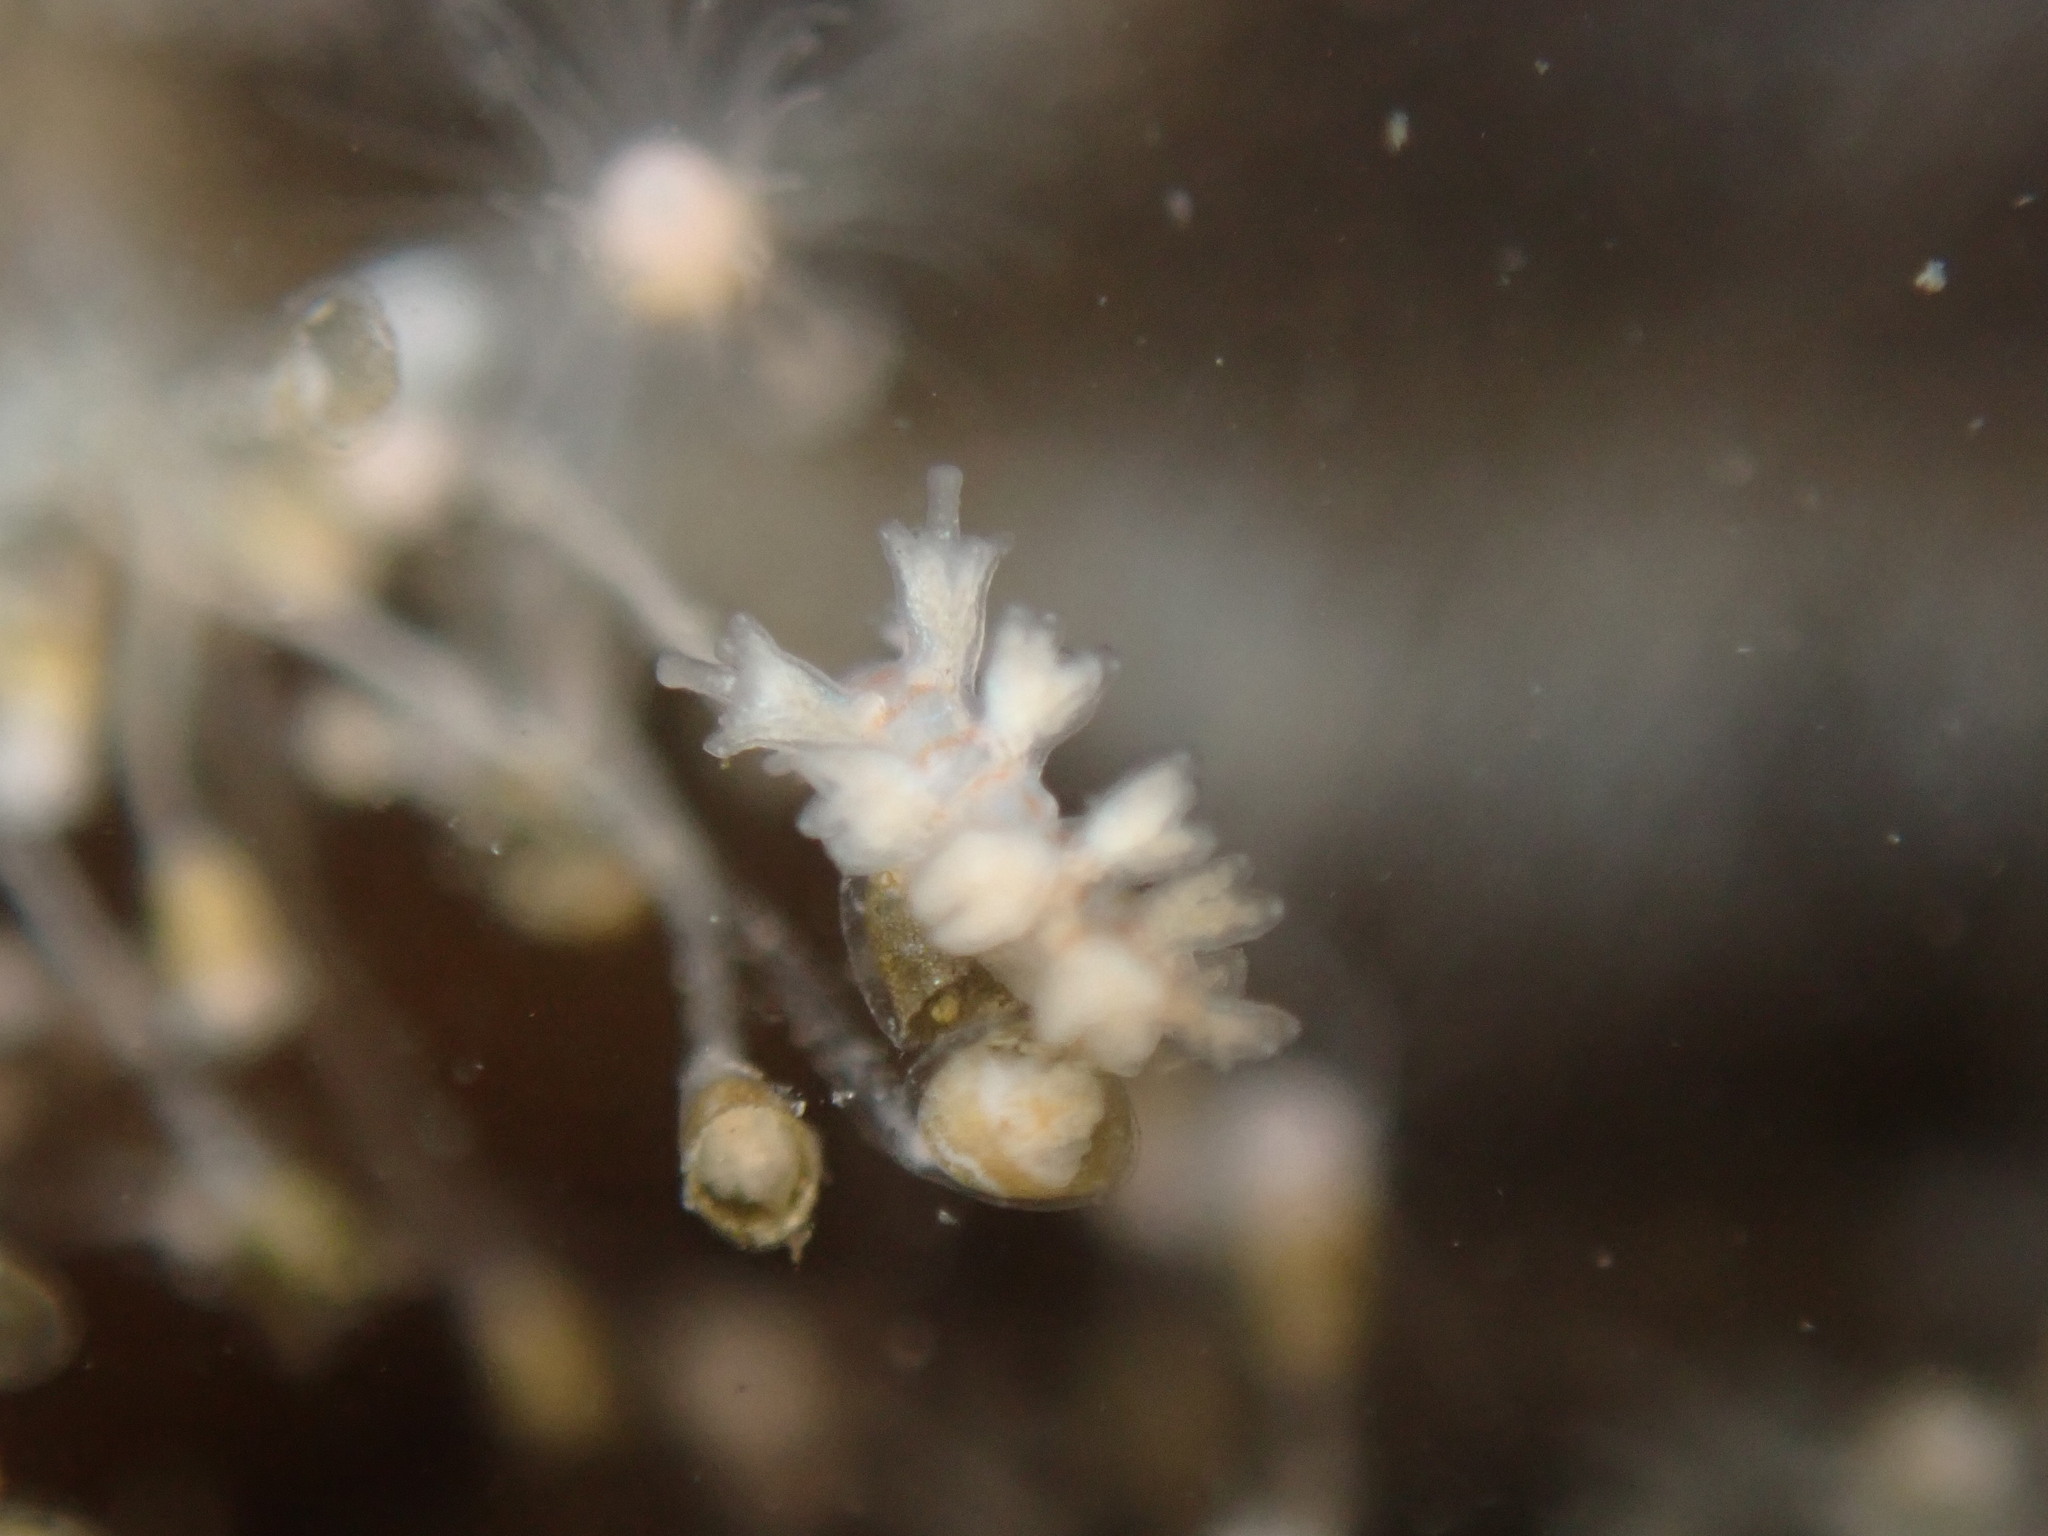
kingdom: Animalia
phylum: Mollusca
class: Gastropoda
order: Nudibranchia
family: Hancockiidae
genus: Hancockia
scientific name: Hancockia californica
